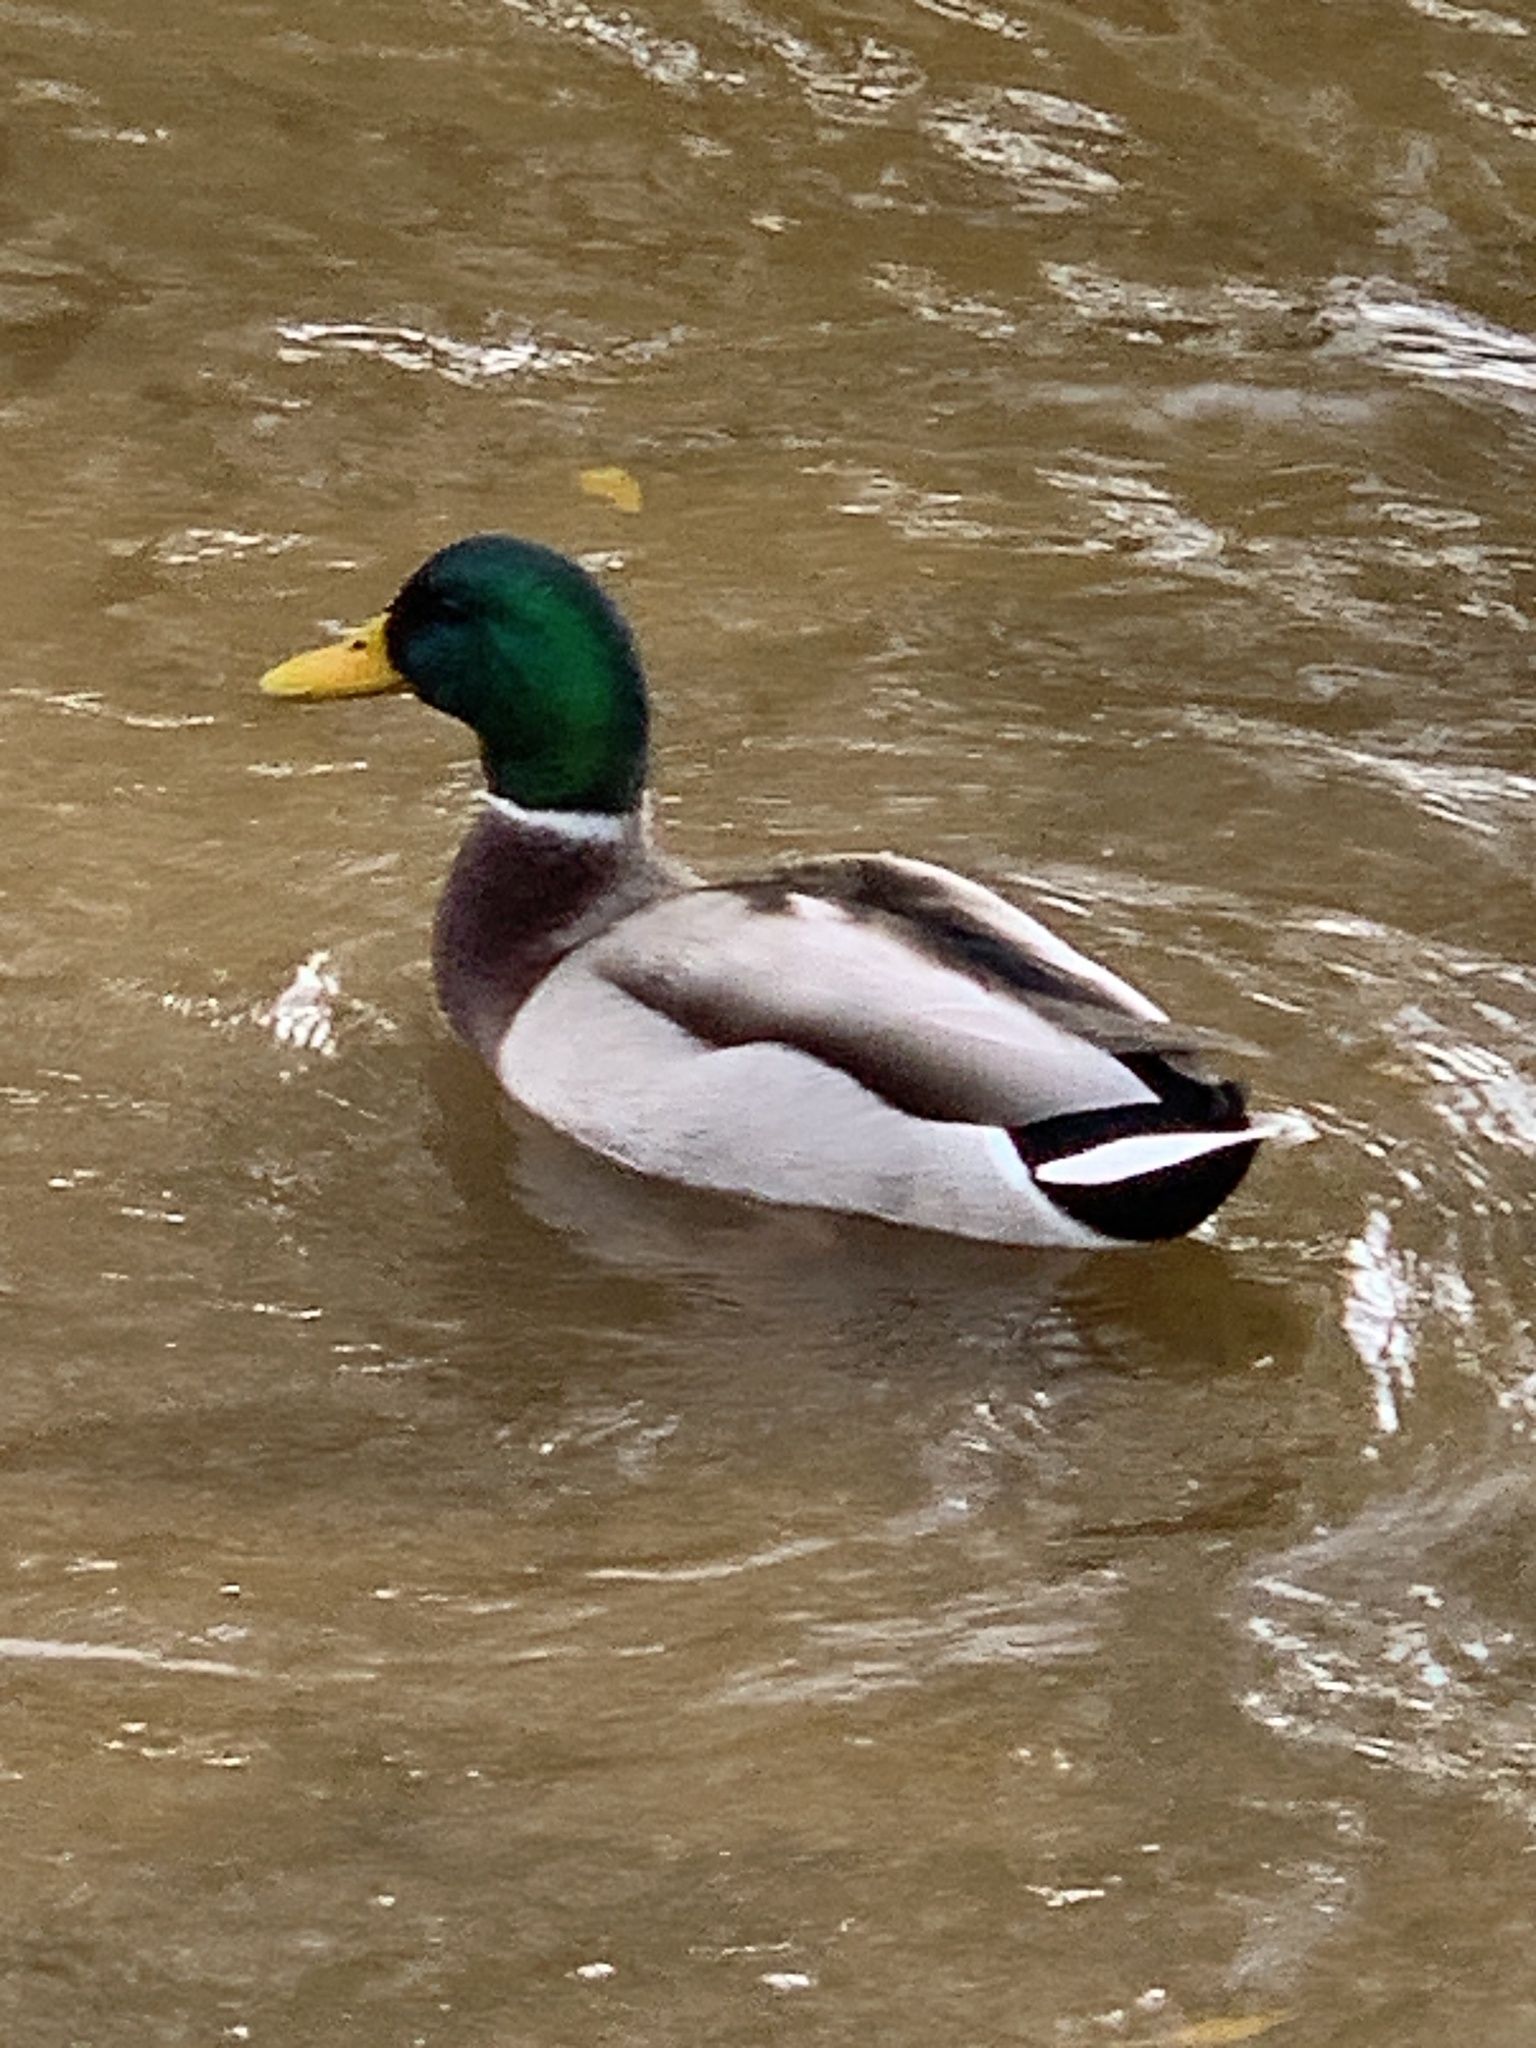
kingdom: Animalia
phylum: Chordata
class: Aves
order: Anseriformes
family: Anatidae
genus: Anas
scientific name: Anas platyrhynchos
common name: Mallard
